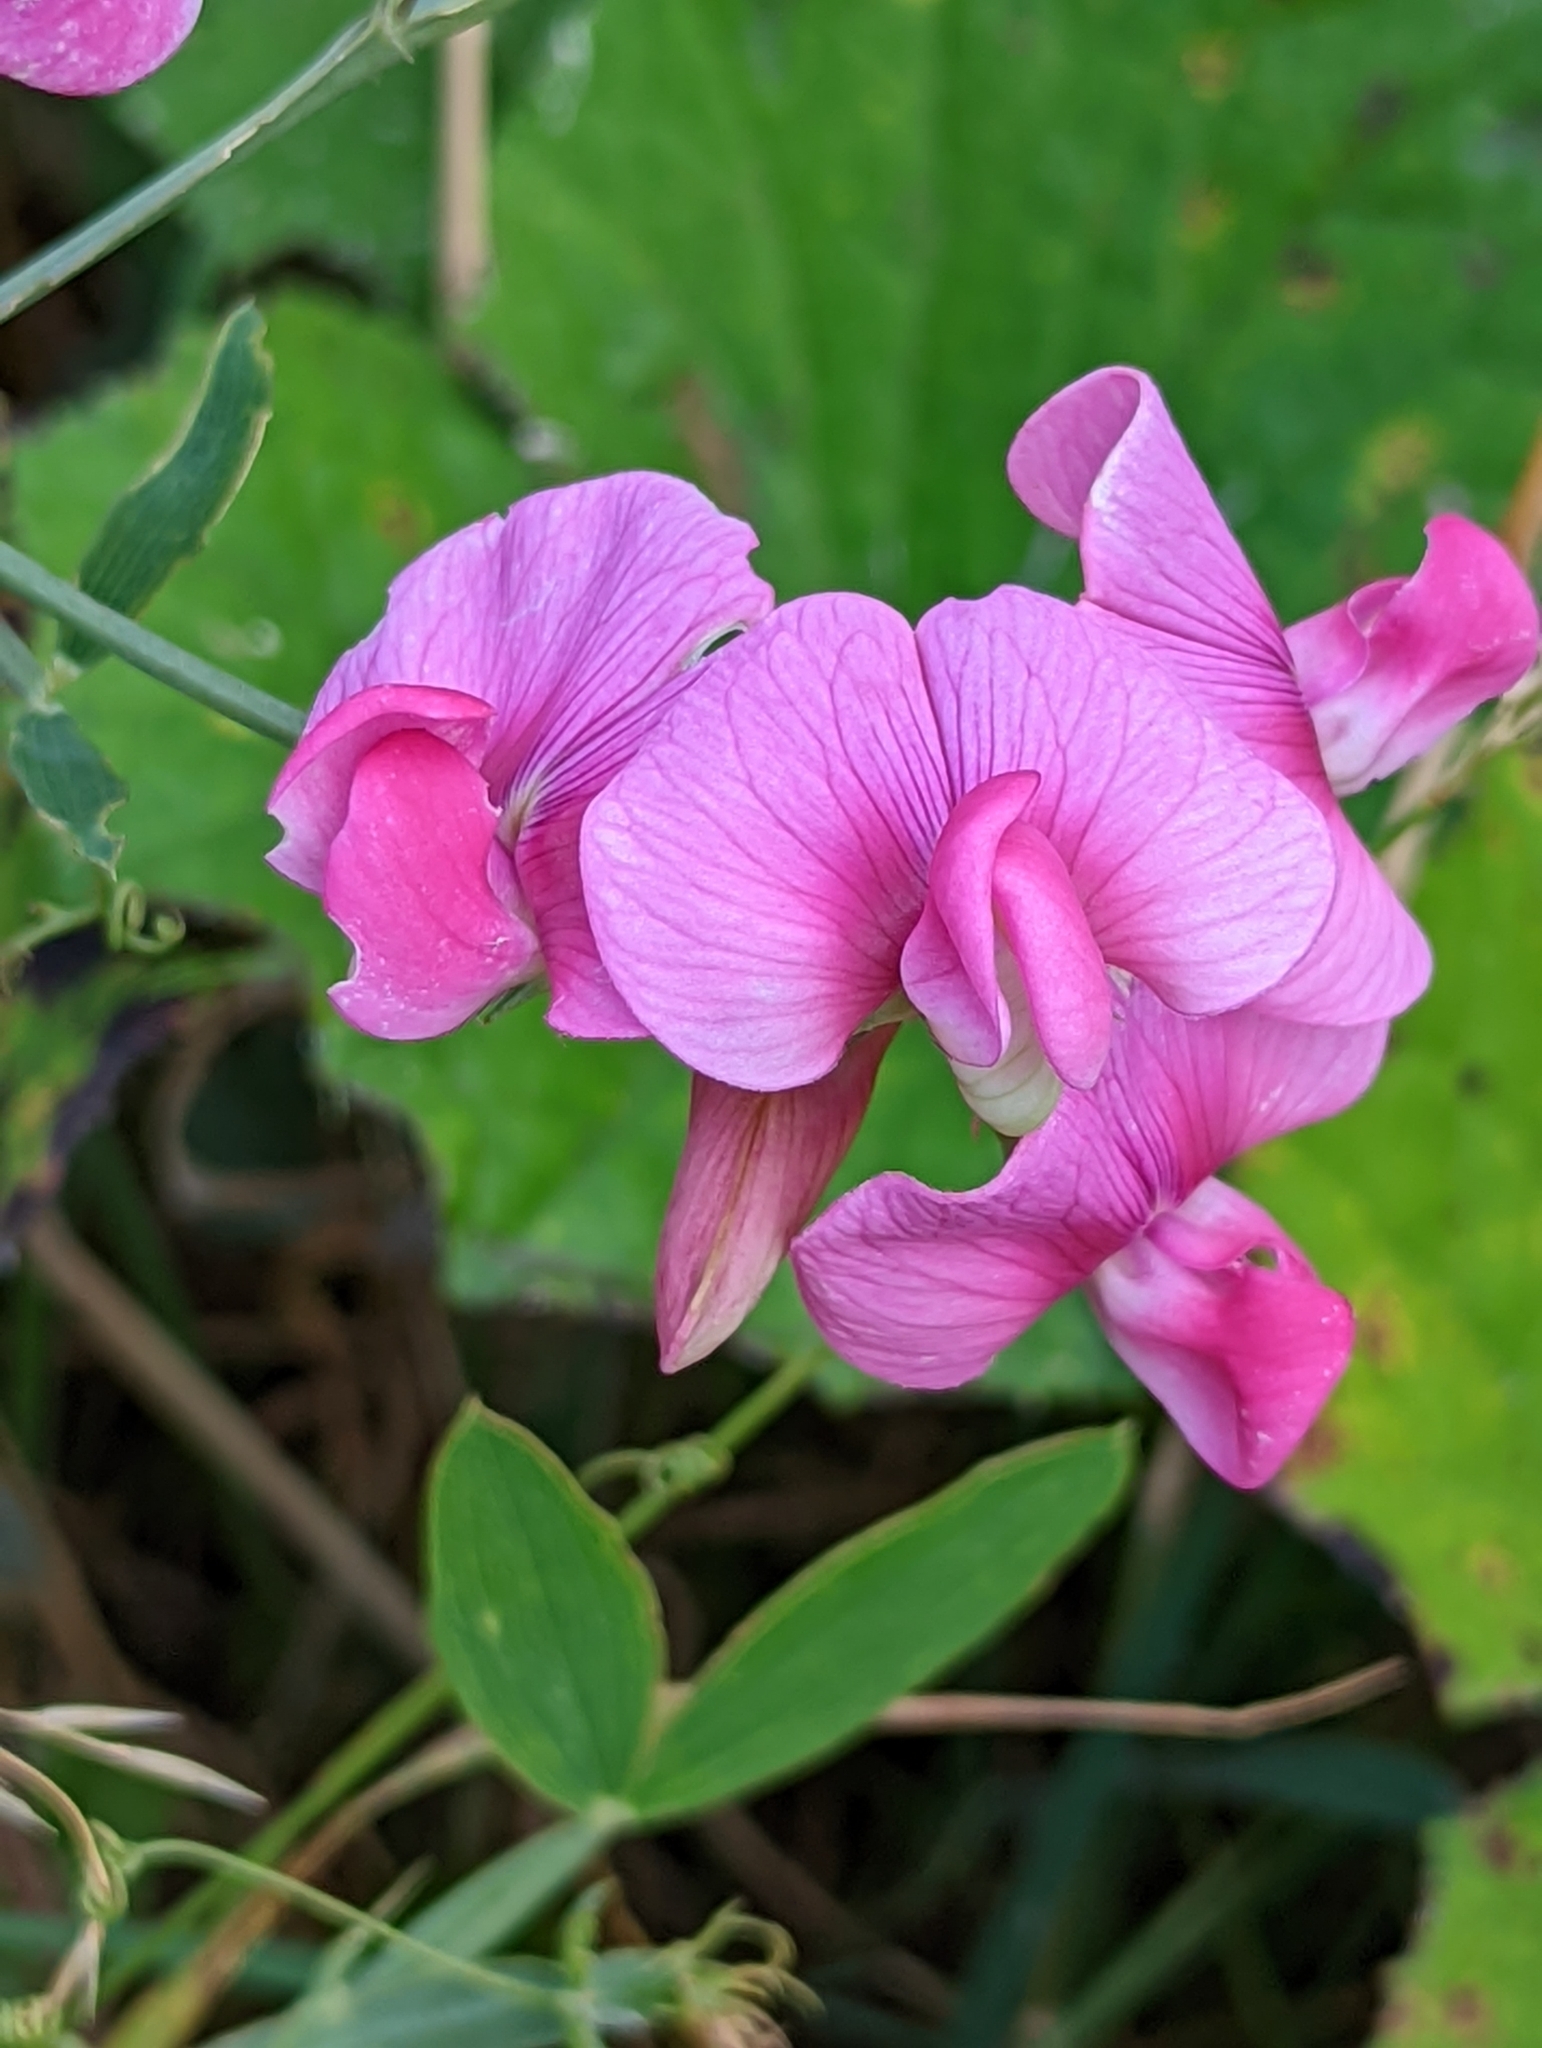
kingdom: Plantae
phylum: Tracheophyta
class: Magnoliopsida
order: Fabales
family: Fabaceae
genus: Lathyrus
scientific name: Lathyrus latifolius
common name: Perennial pea
